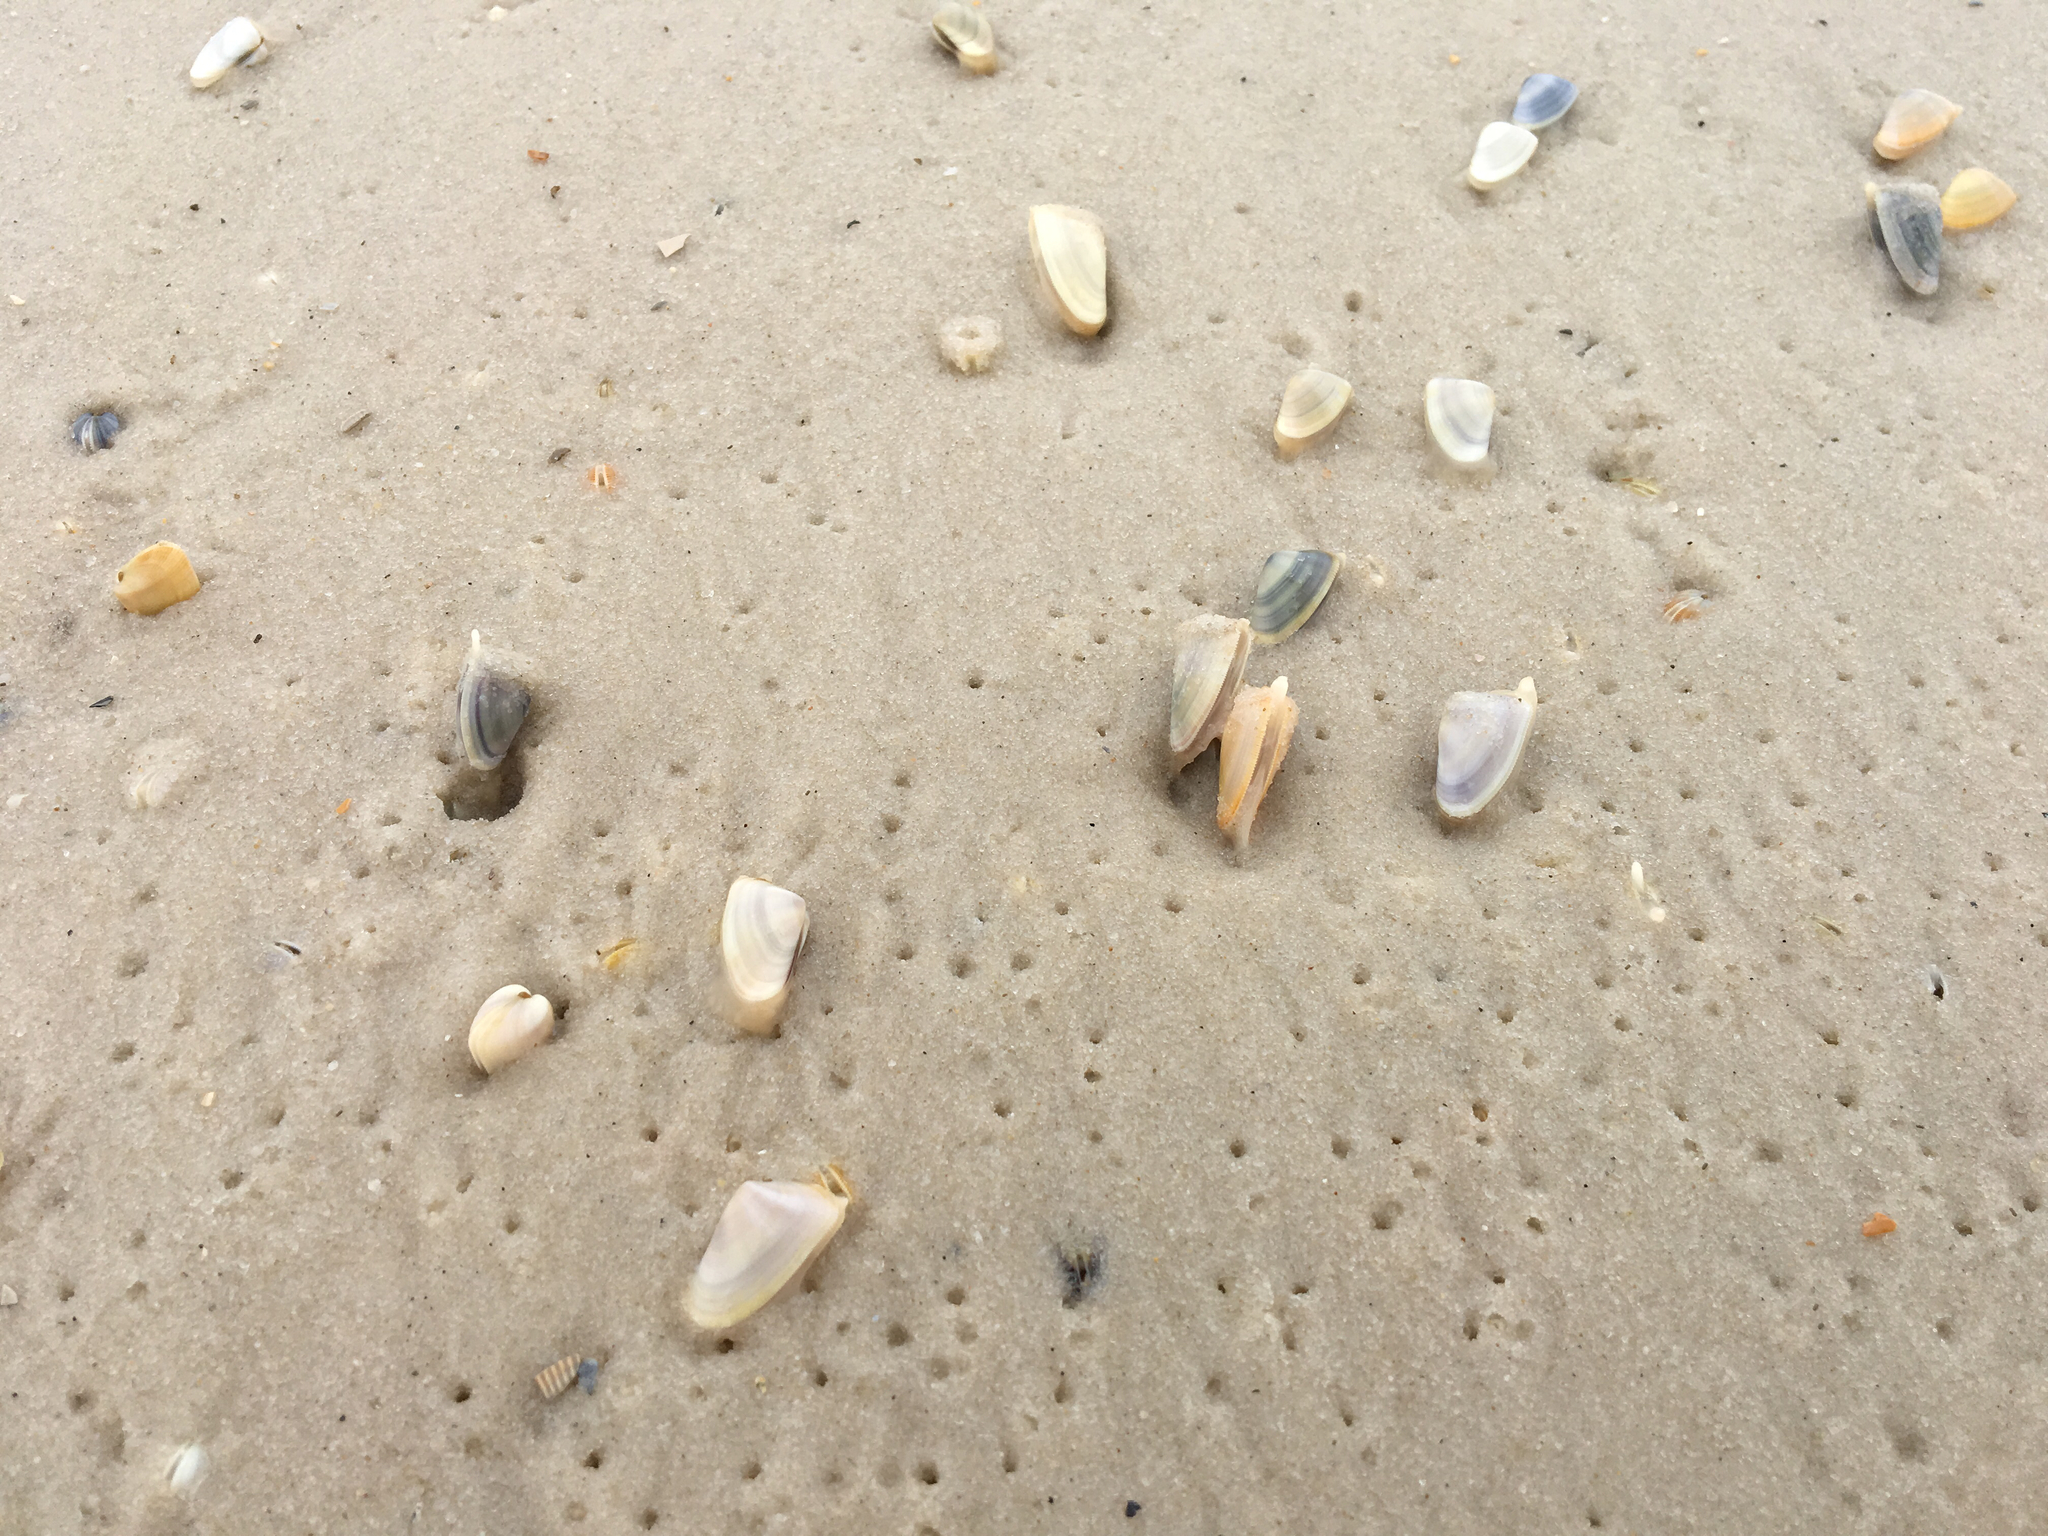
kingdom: Animalia
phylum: Mollusca
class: Bivalvia
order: Cardiida
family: Donacidae
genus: Donax
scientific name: Donax variabilis
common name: Butterfly shell
